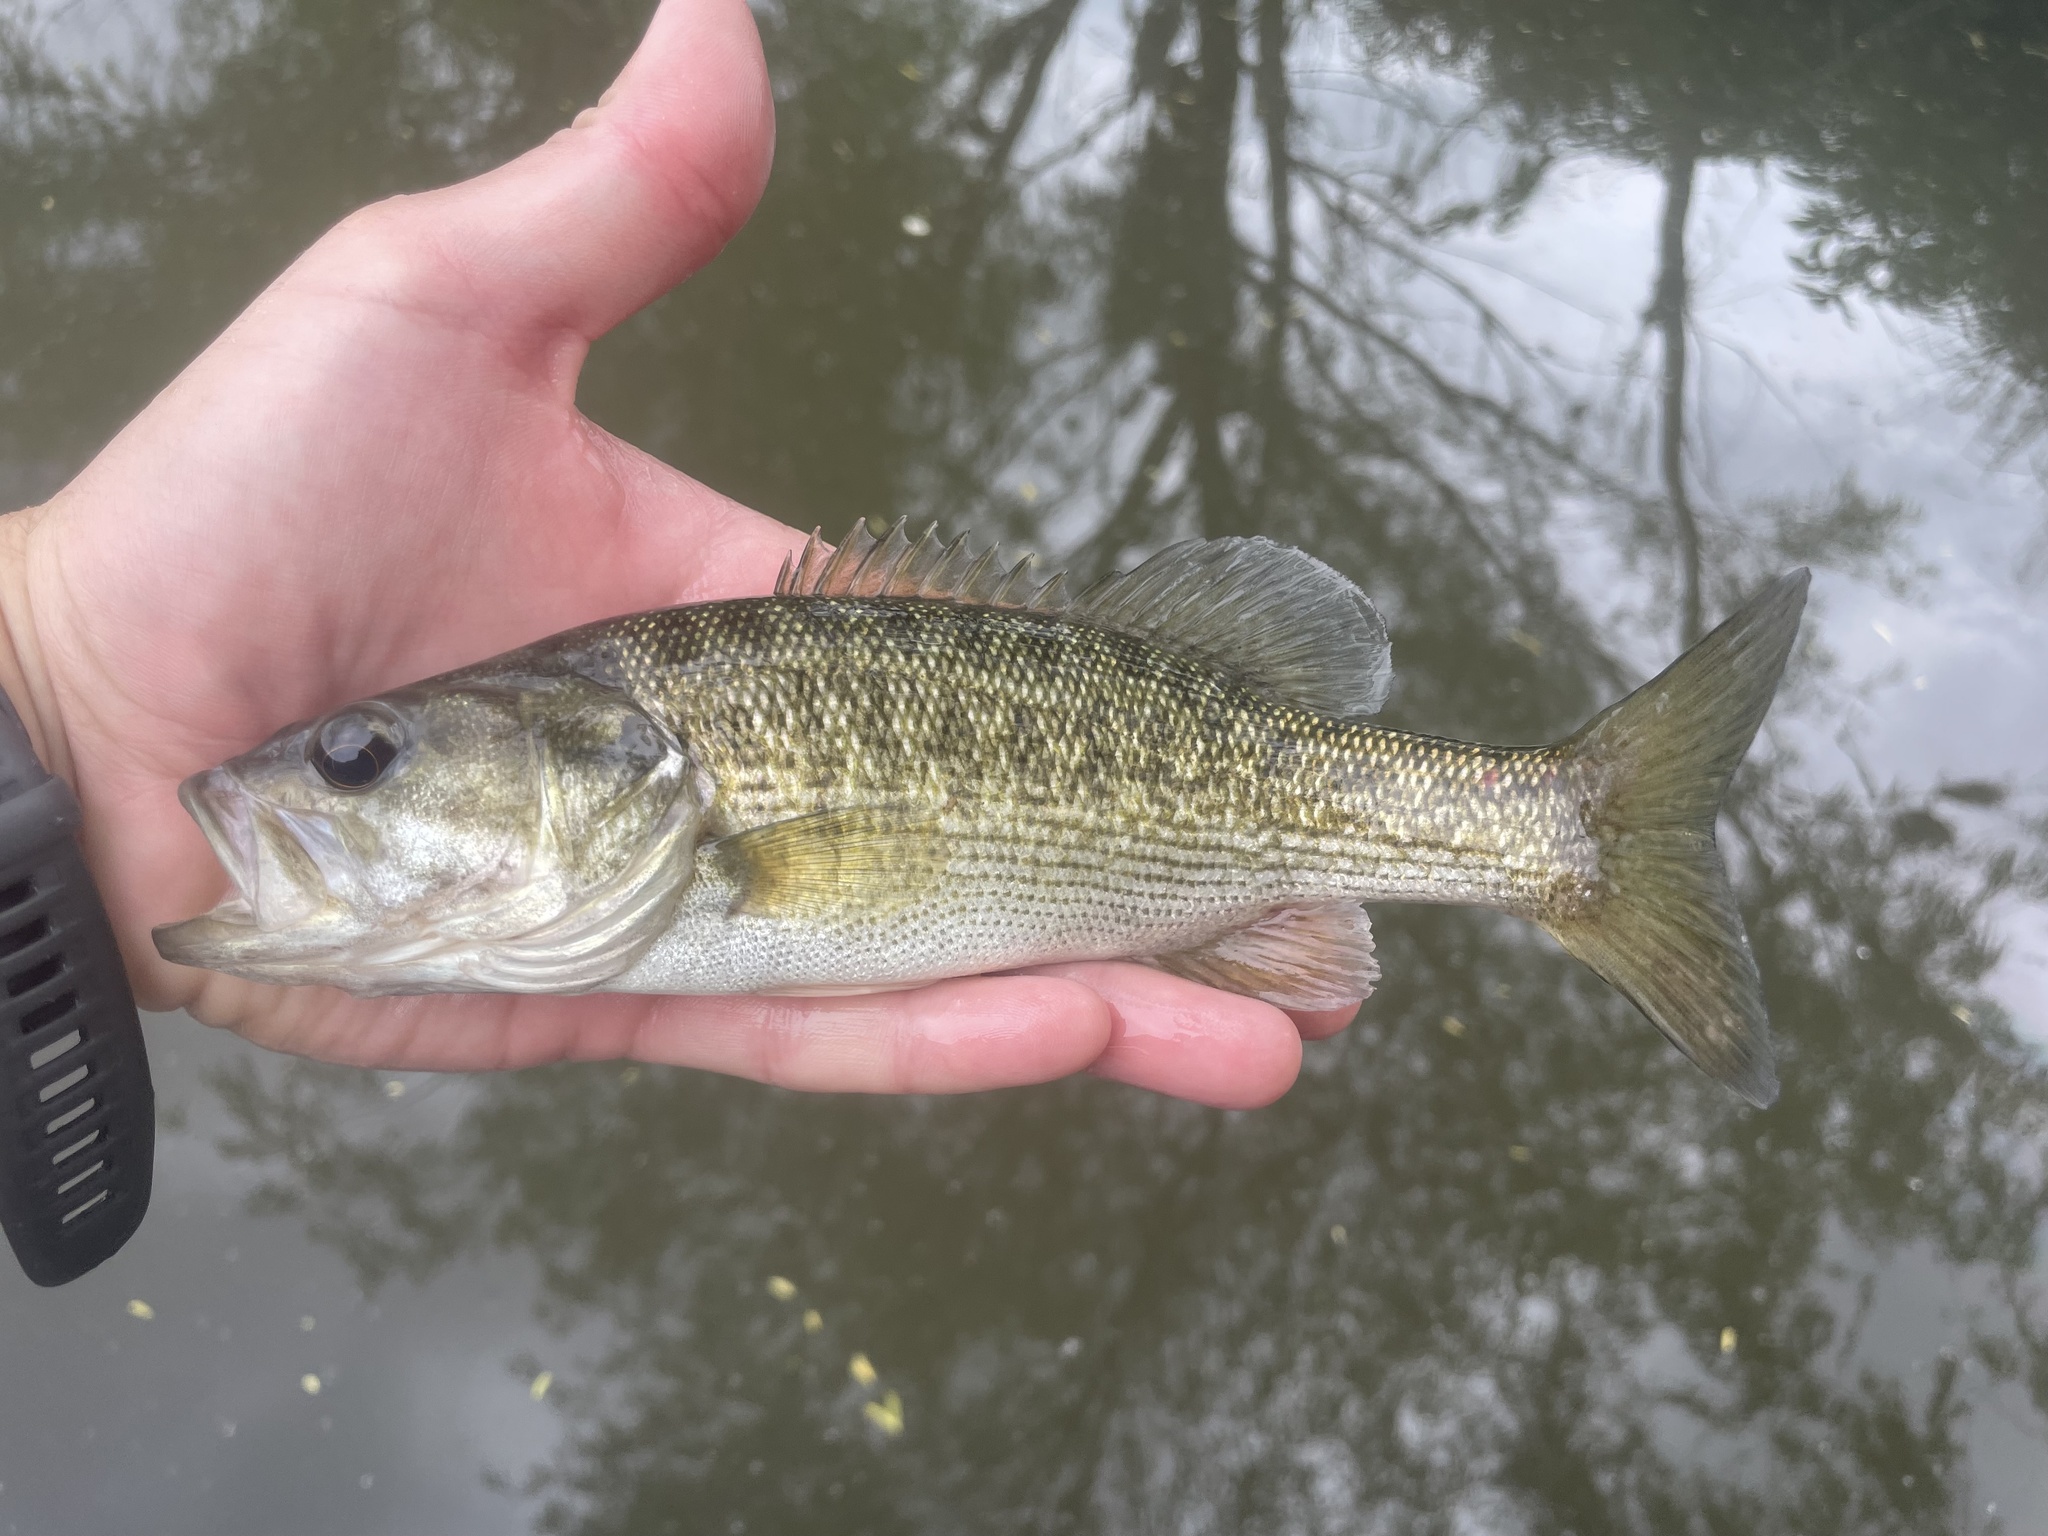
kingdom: Animalia
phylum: Chordata
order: Perciformes
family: Centrarchidae
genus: Micropterus
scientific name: Micropterus treculii
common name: Guadalupe bass
